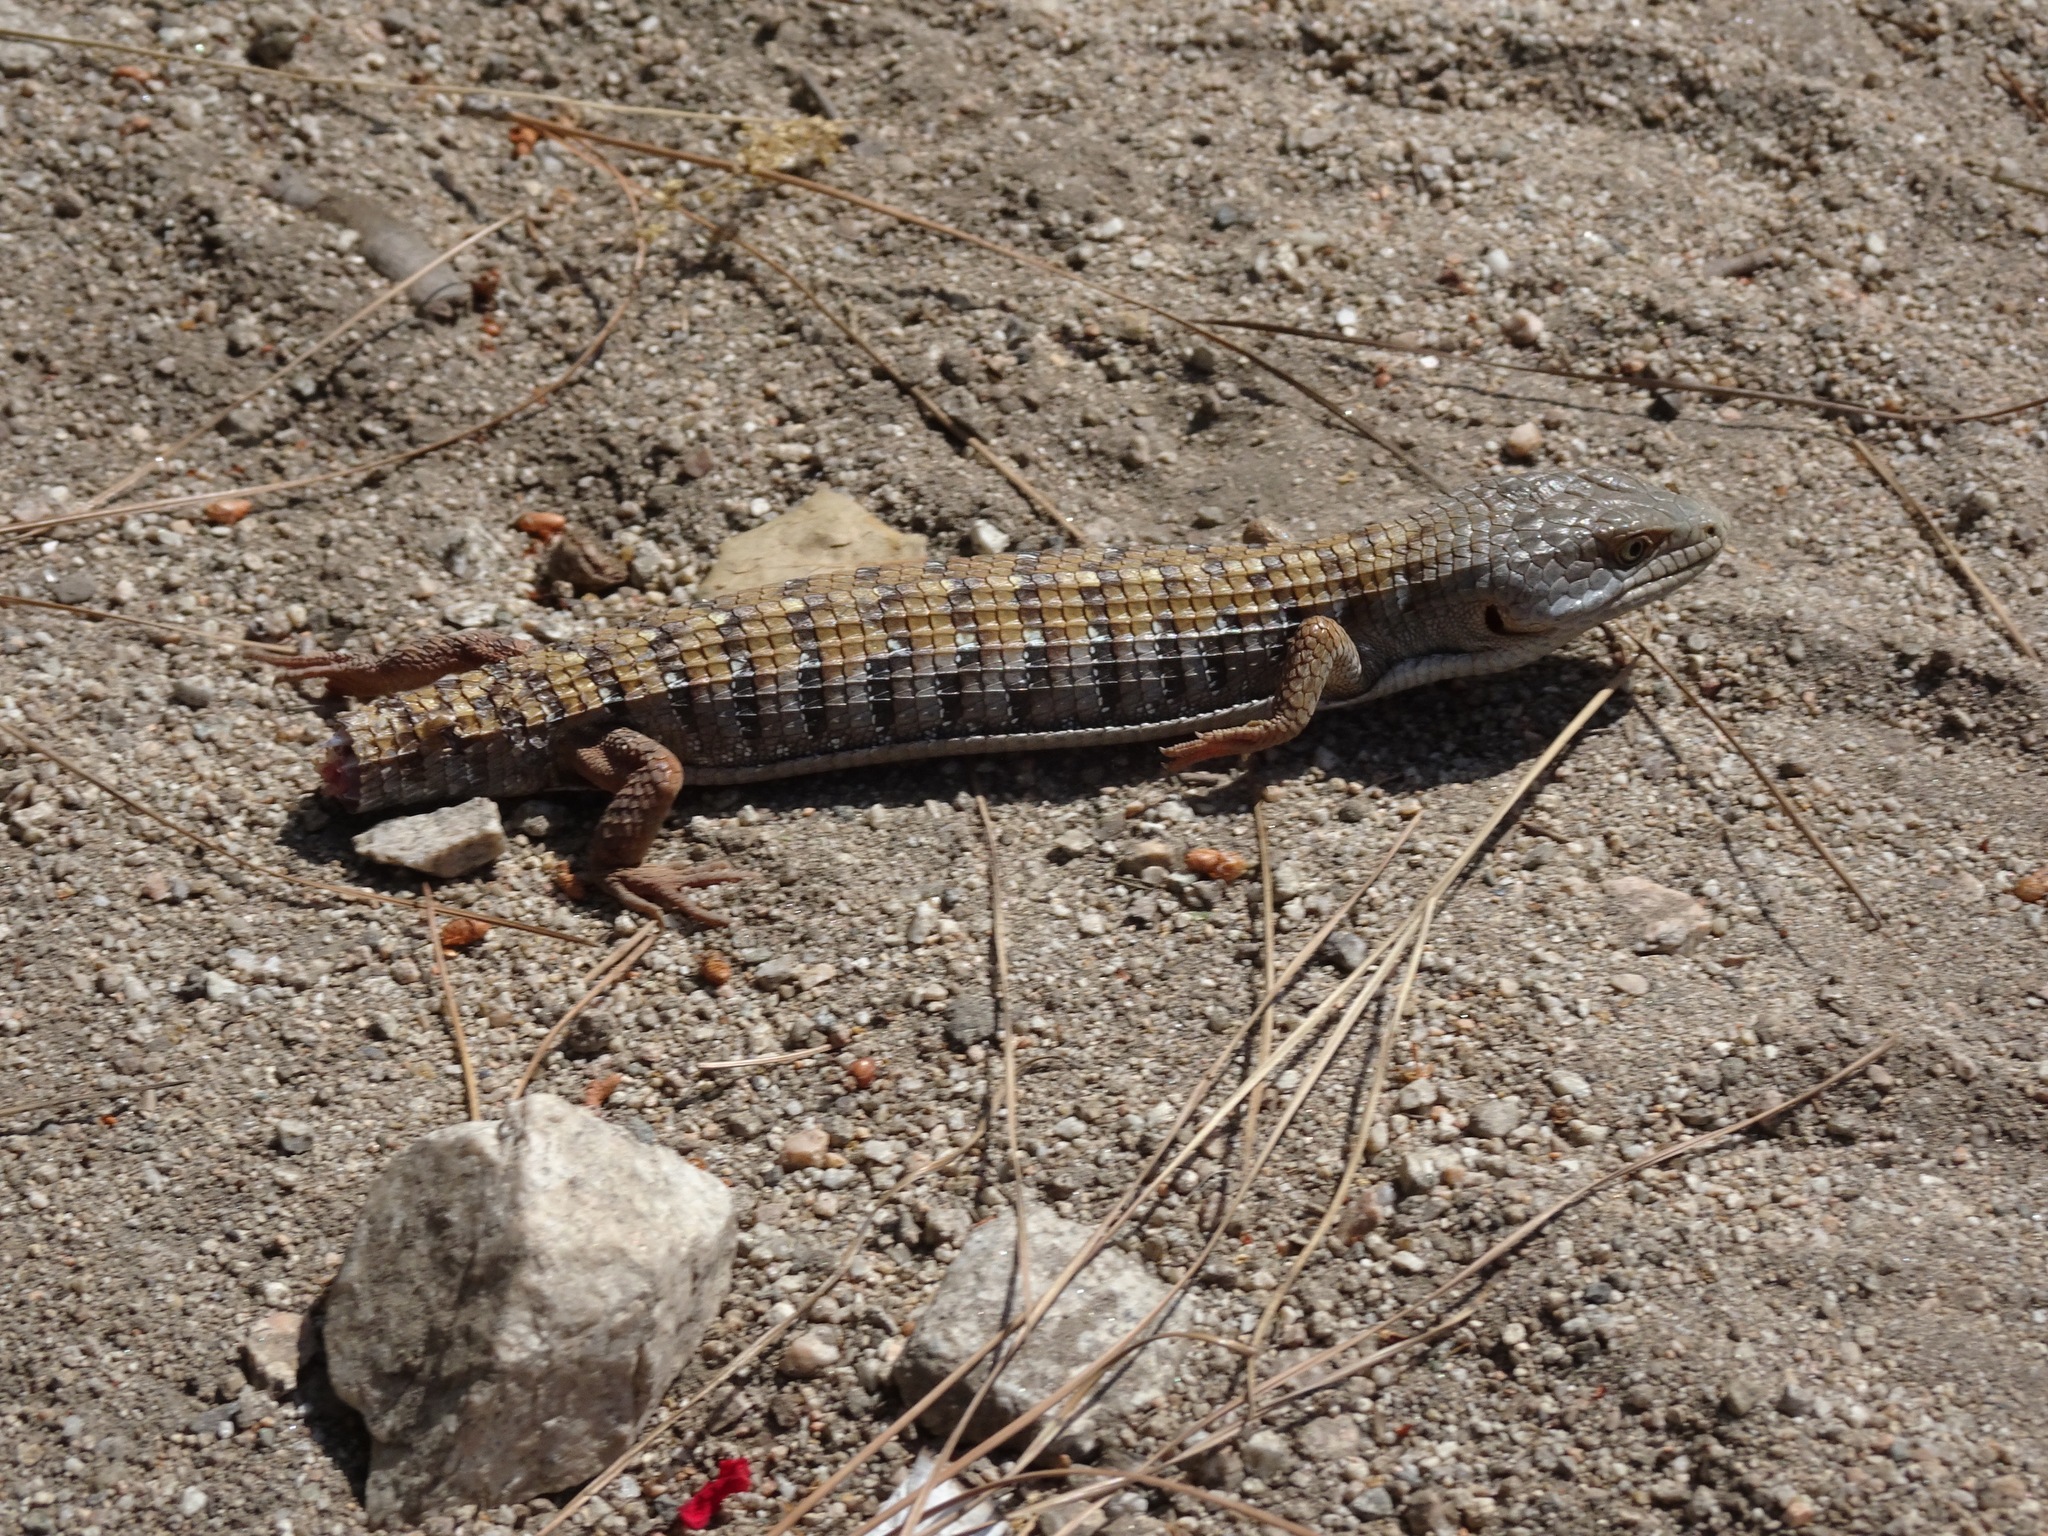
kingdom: Animalia
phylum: Chordata
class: Squamata
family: Anguidae
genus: Elgaria
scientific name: Elgaria multicarinata
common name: Southern alligator lizard
